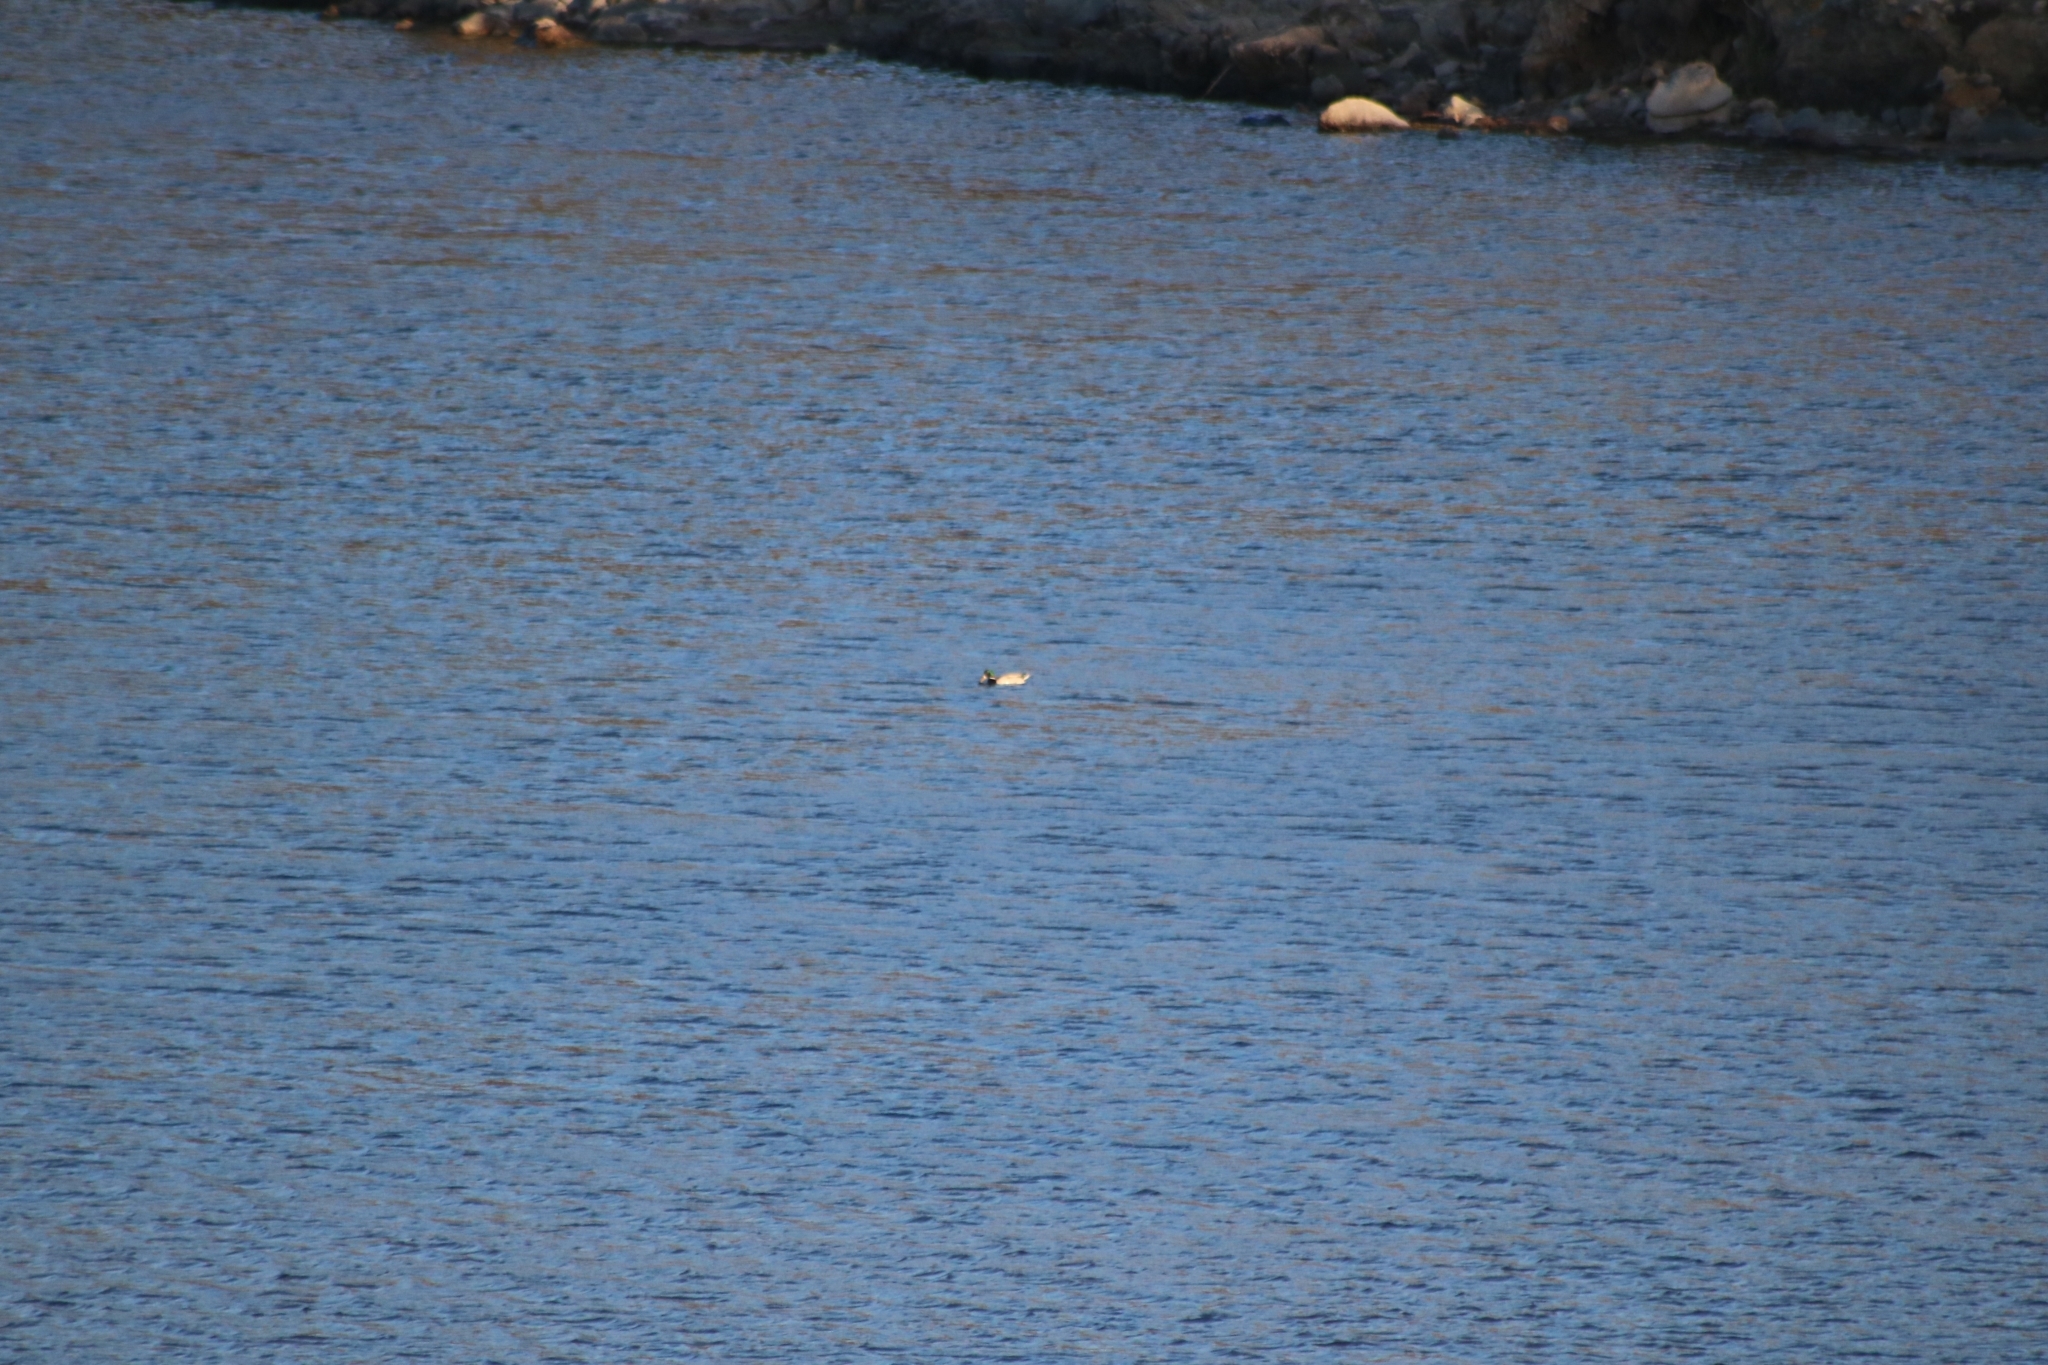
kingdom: Animalia
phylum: Chordata
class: Aves
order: Anseriformes
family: Anatidae
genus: Anas
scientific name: Anas platyrhynchos
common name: Mallard
